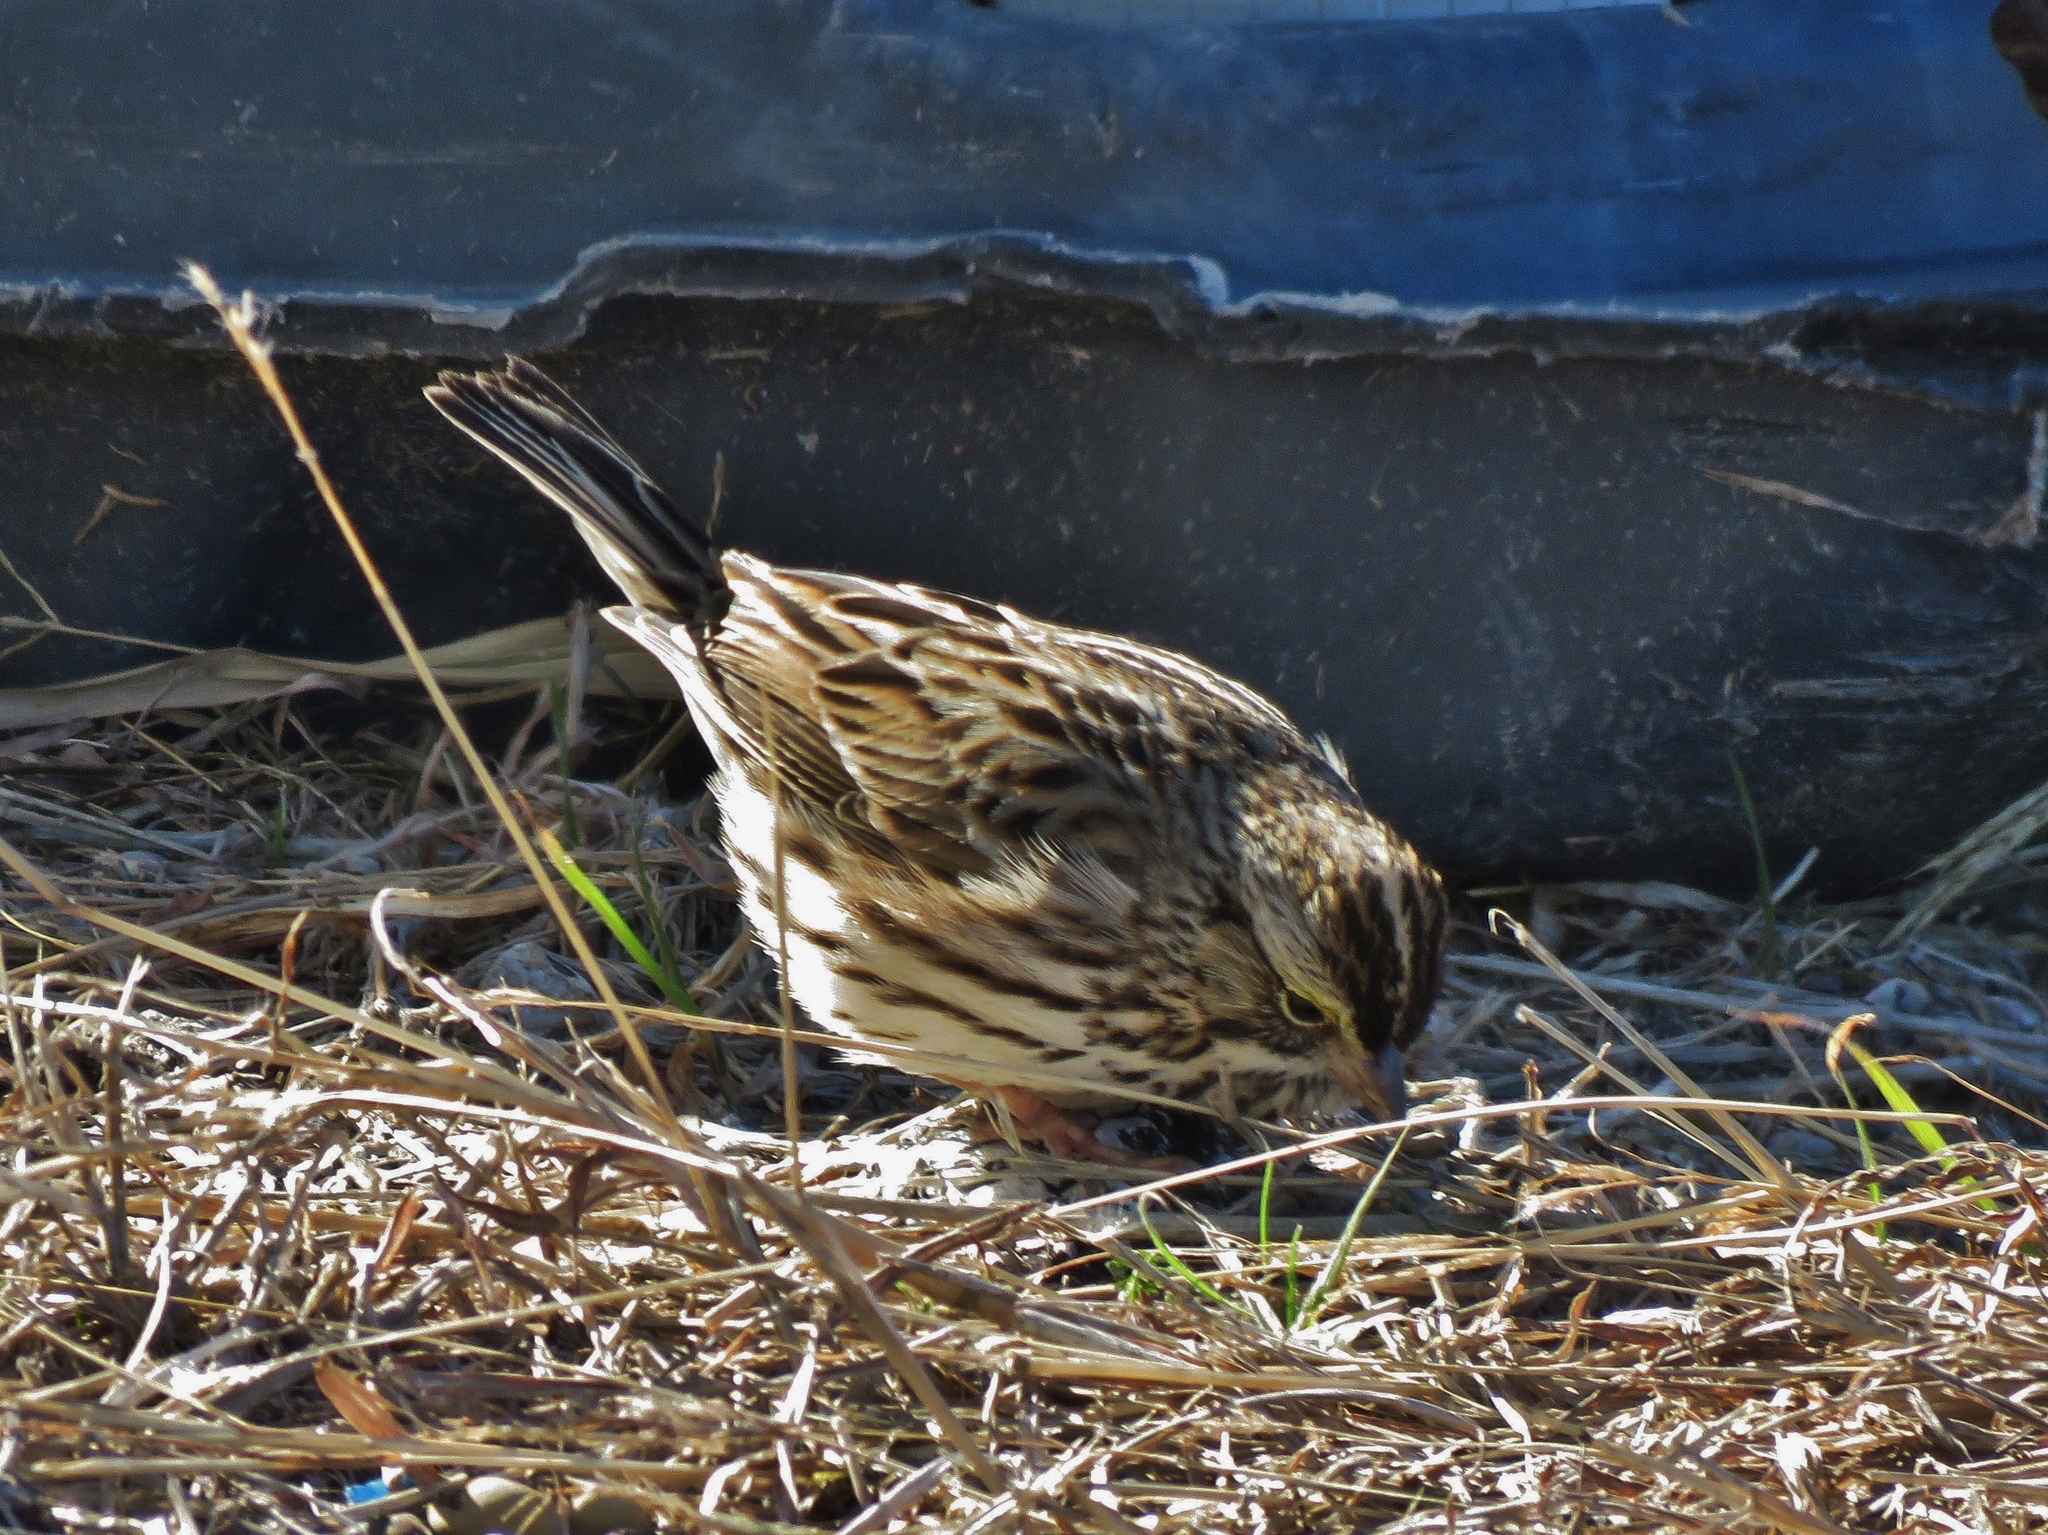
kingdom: Animalia
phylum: Chordata
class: Aves
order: Passeriformes
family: Passerellidae
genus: Passerculus
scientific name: Passerculus sandwichensis
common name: Savannah sparrow
